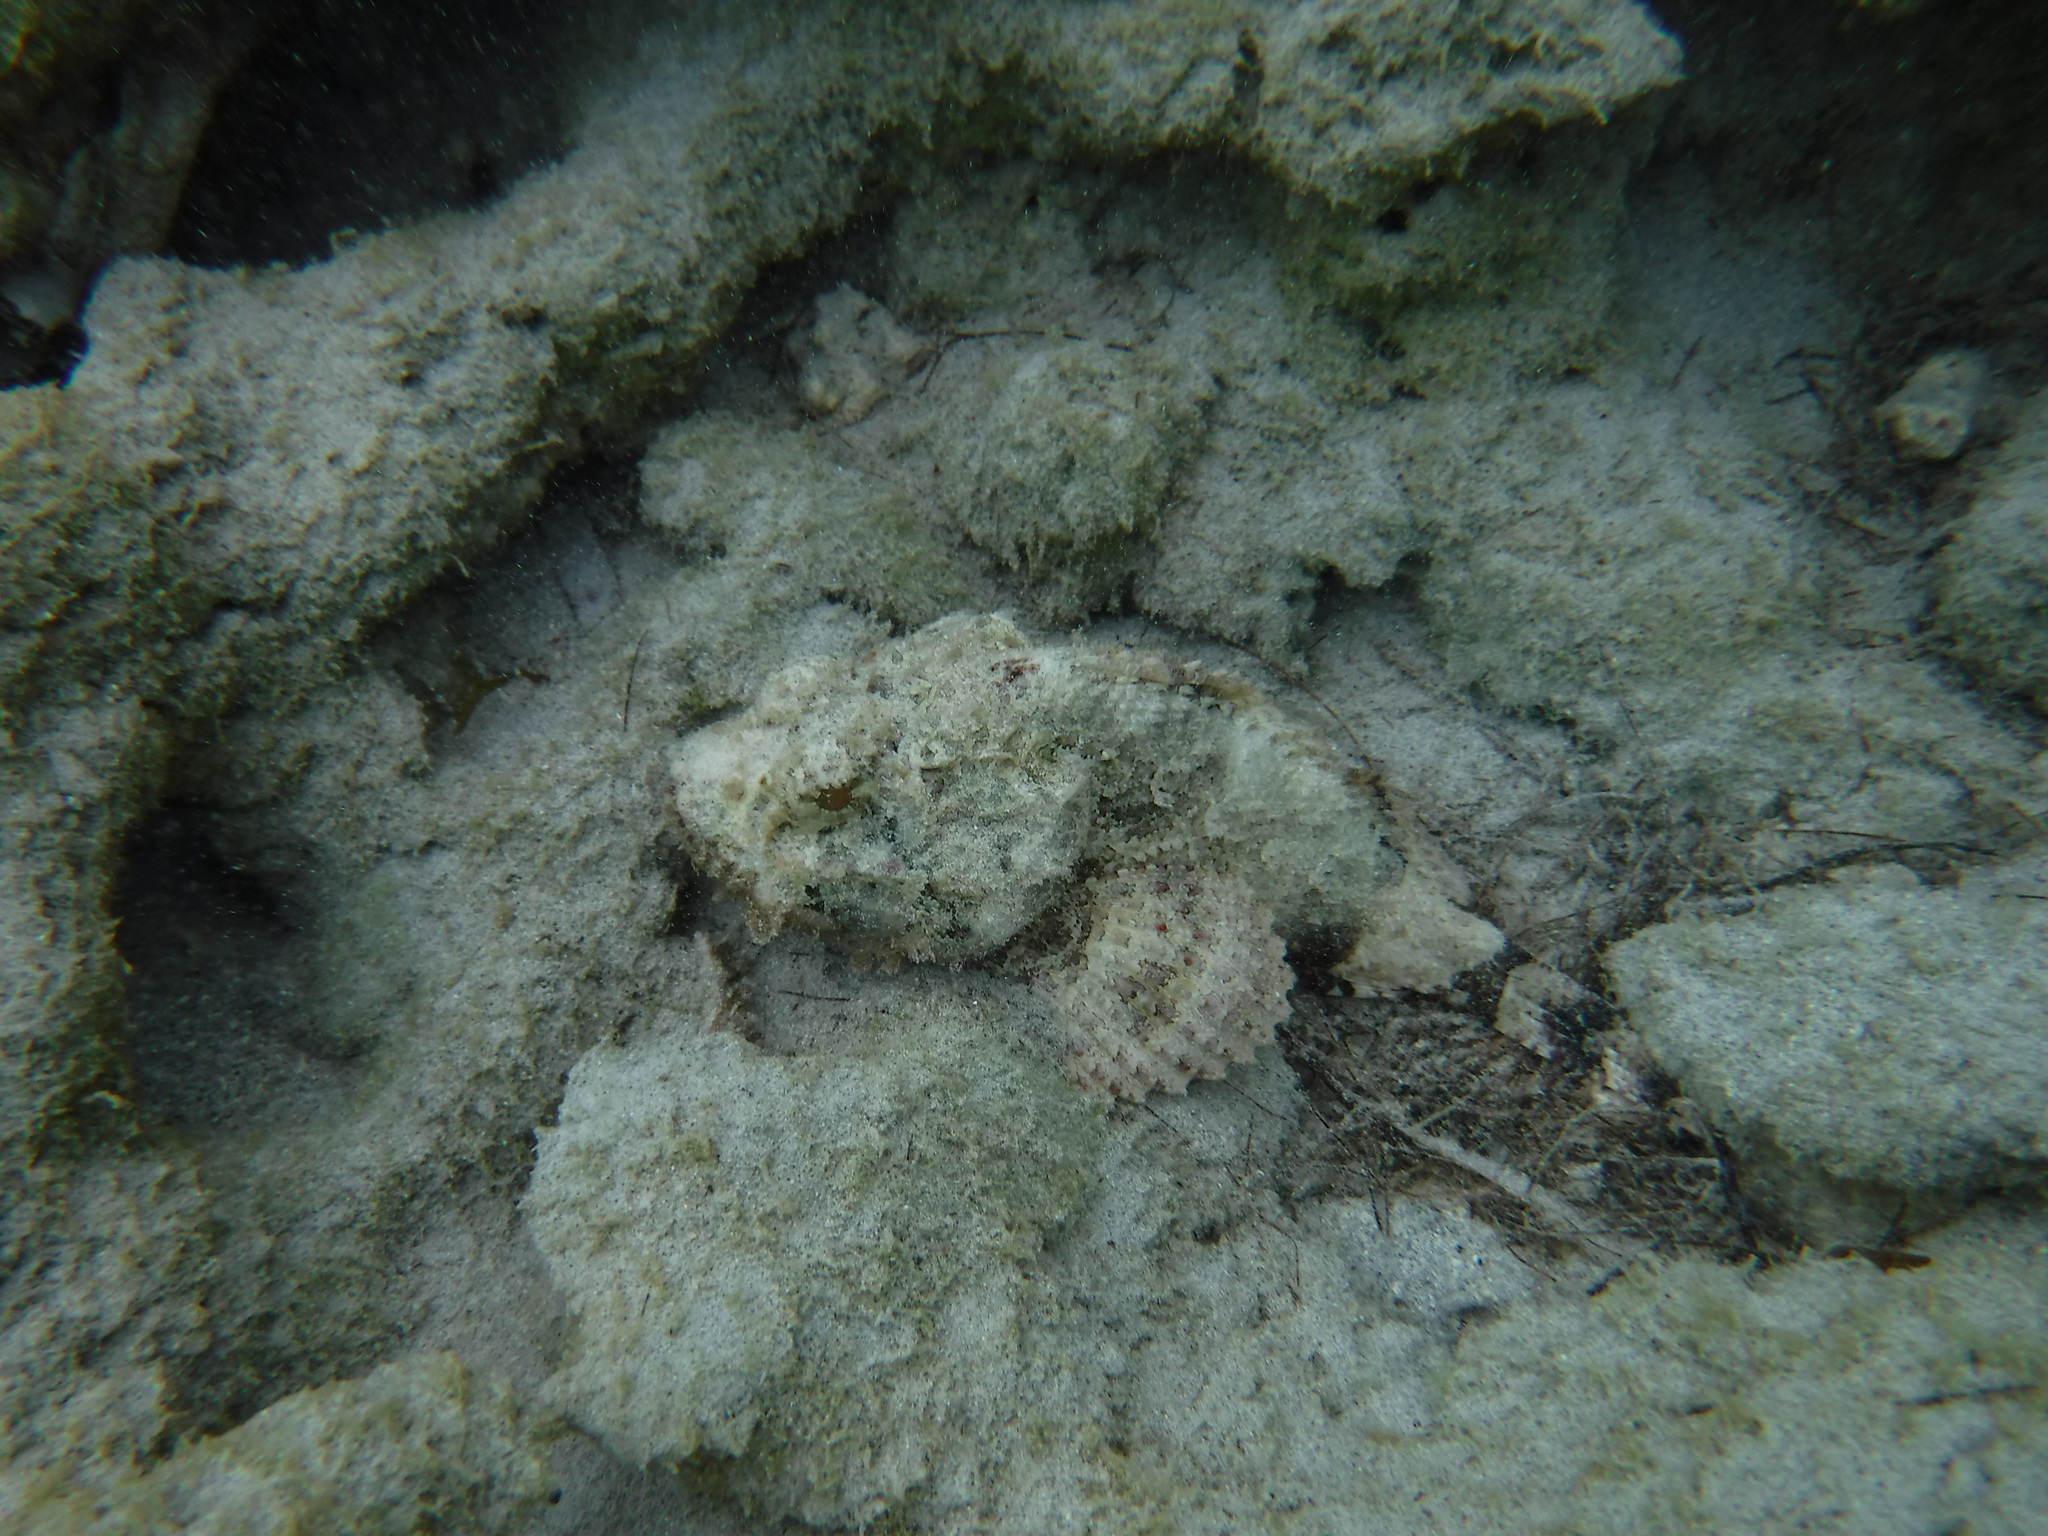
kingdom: Animalia
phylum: Chordata
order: Scorpaeniformes
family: Scorpaenidae
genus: Scorpaena
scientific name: Scorpaena plumieri
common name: Spotted scorpionfish
